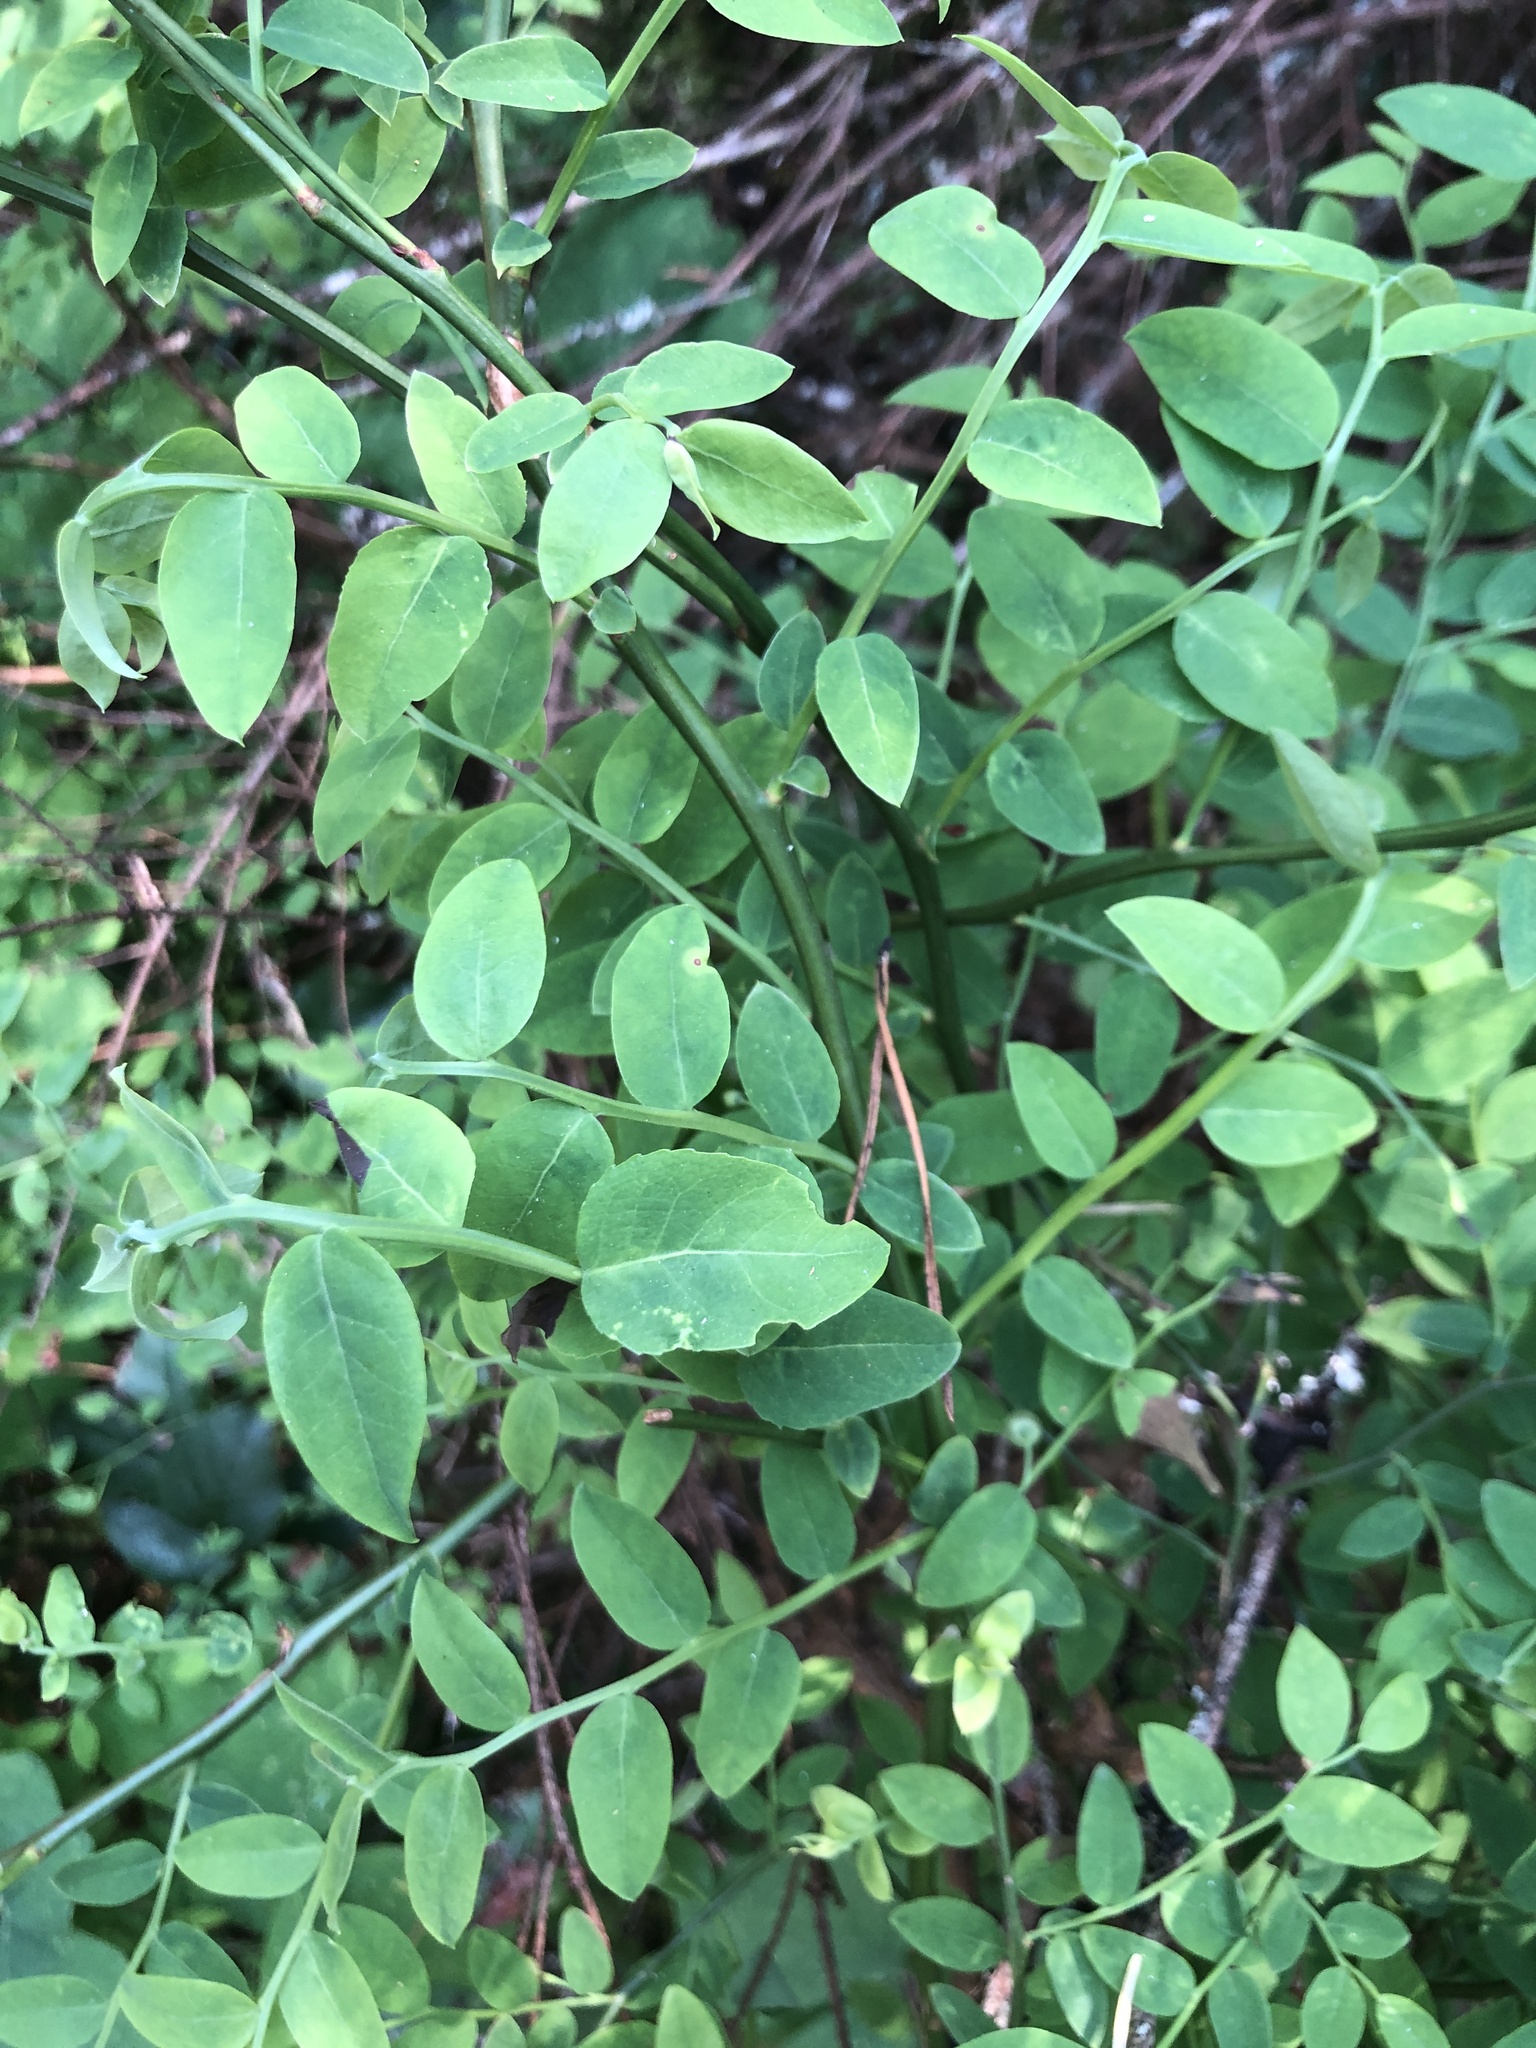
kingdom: Plantae
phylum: Tracheophyta
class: Magnoliopsida
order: Ericales
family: Ericaceae
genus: Vaccinium
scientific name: Vaccinium parvifolium
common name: Red-huckleberry
